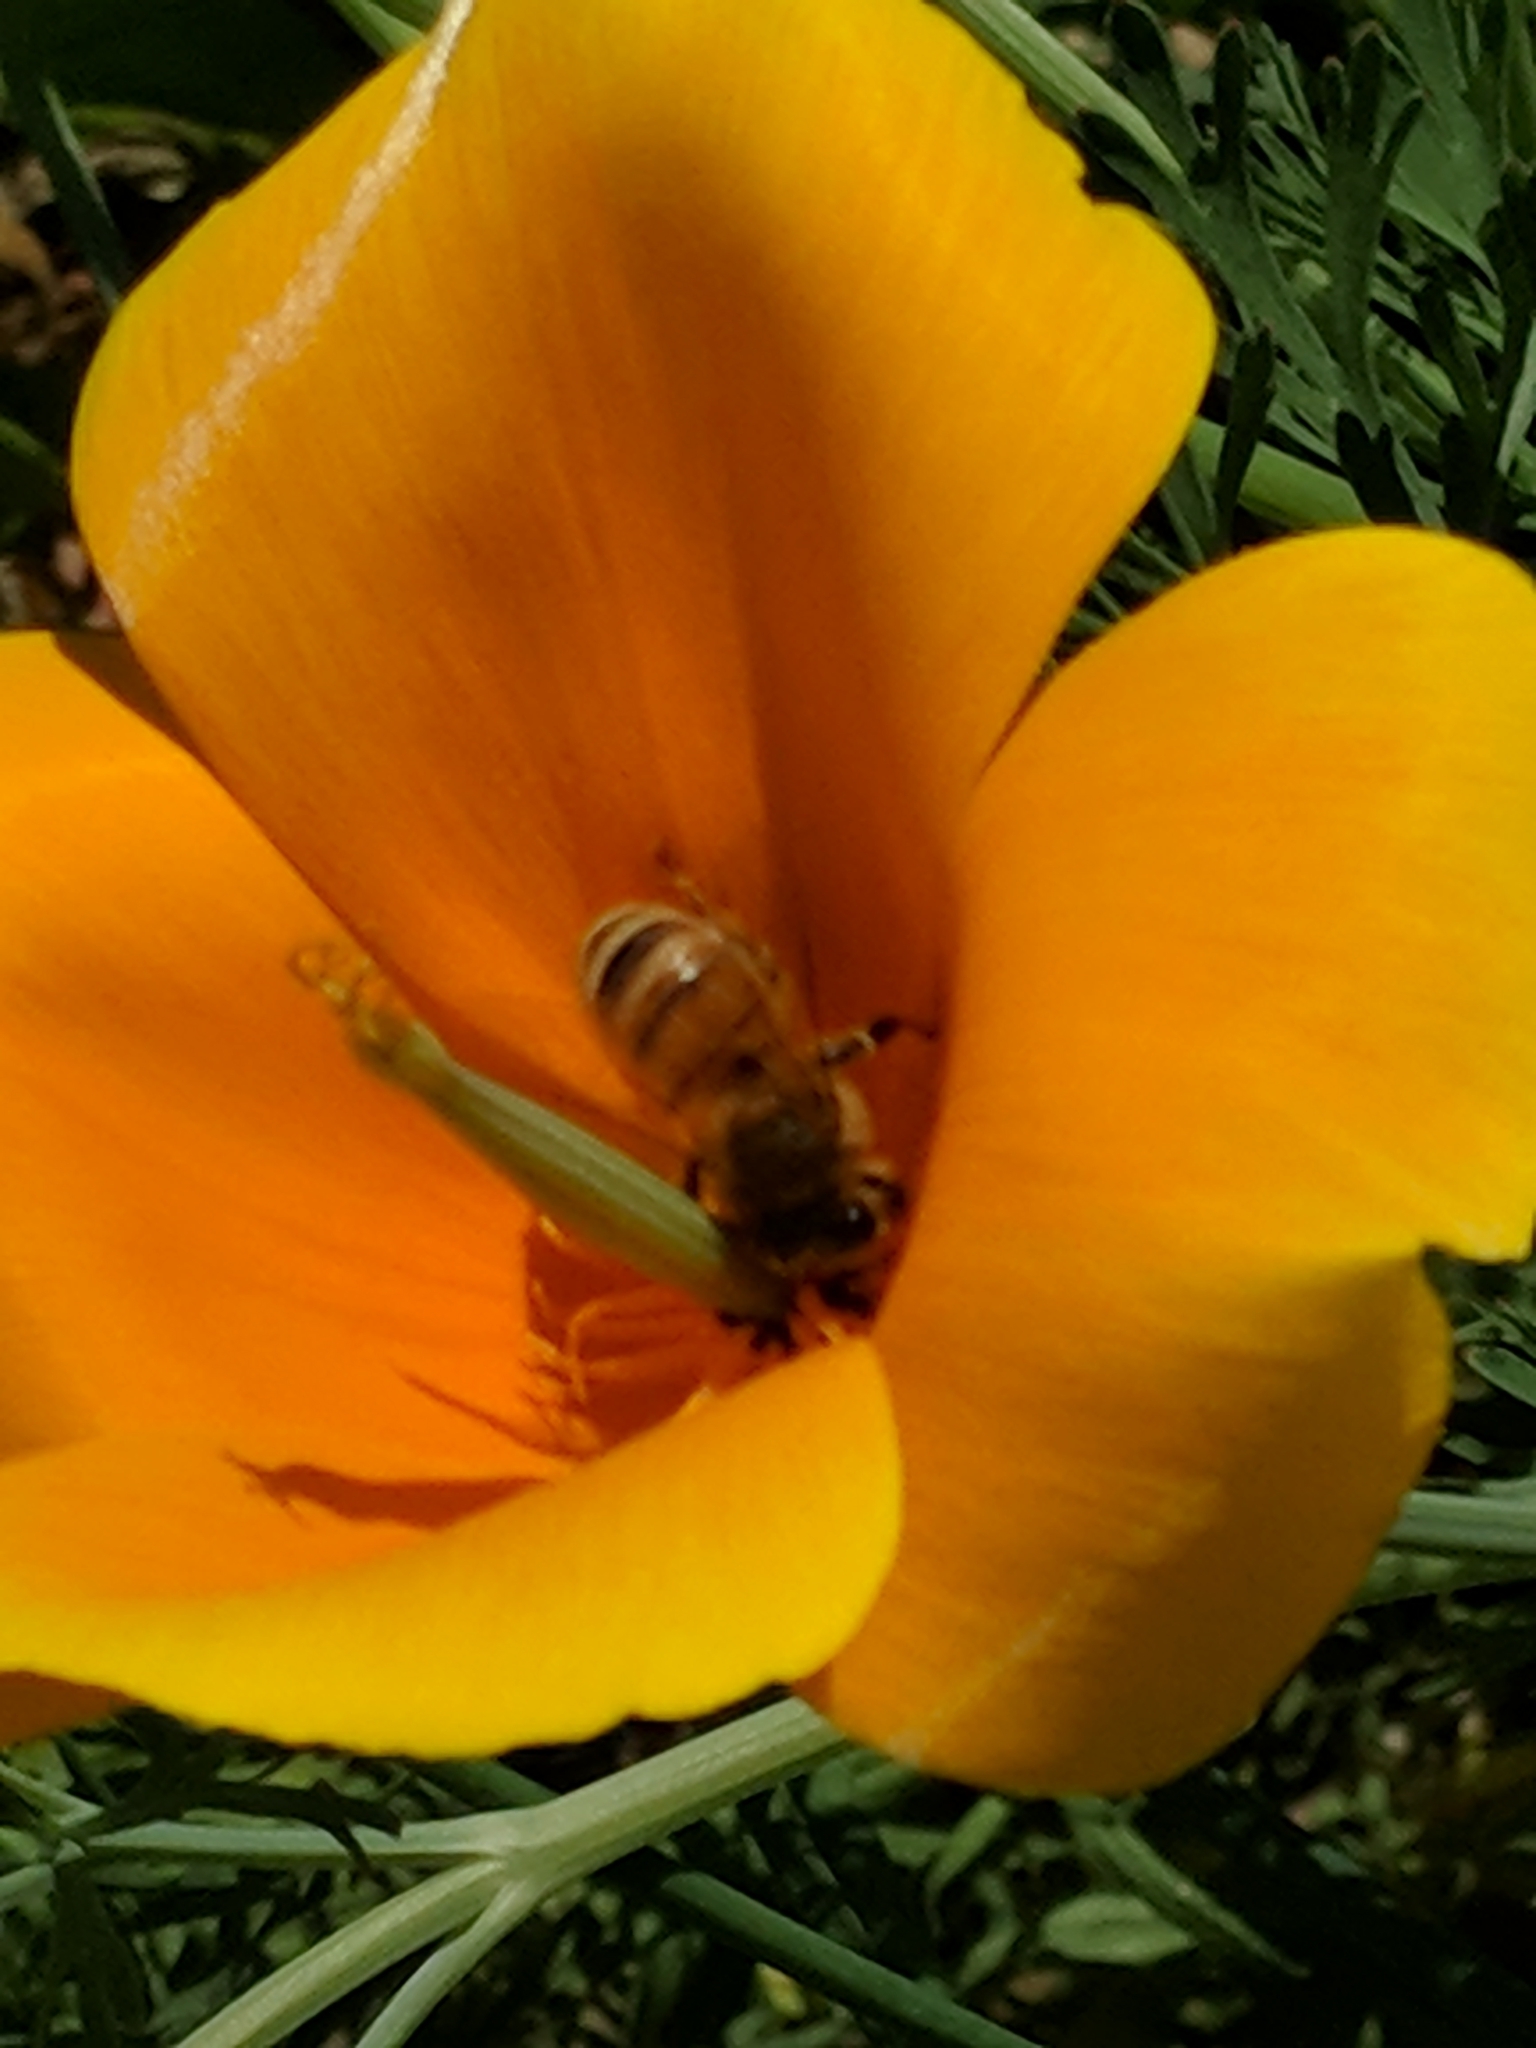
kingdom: Animalia
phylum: Arthropoda
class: Insecta
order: Hymenoptera
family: Apidae
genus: Apis
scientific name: Apis mellifera
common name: Honey bee
